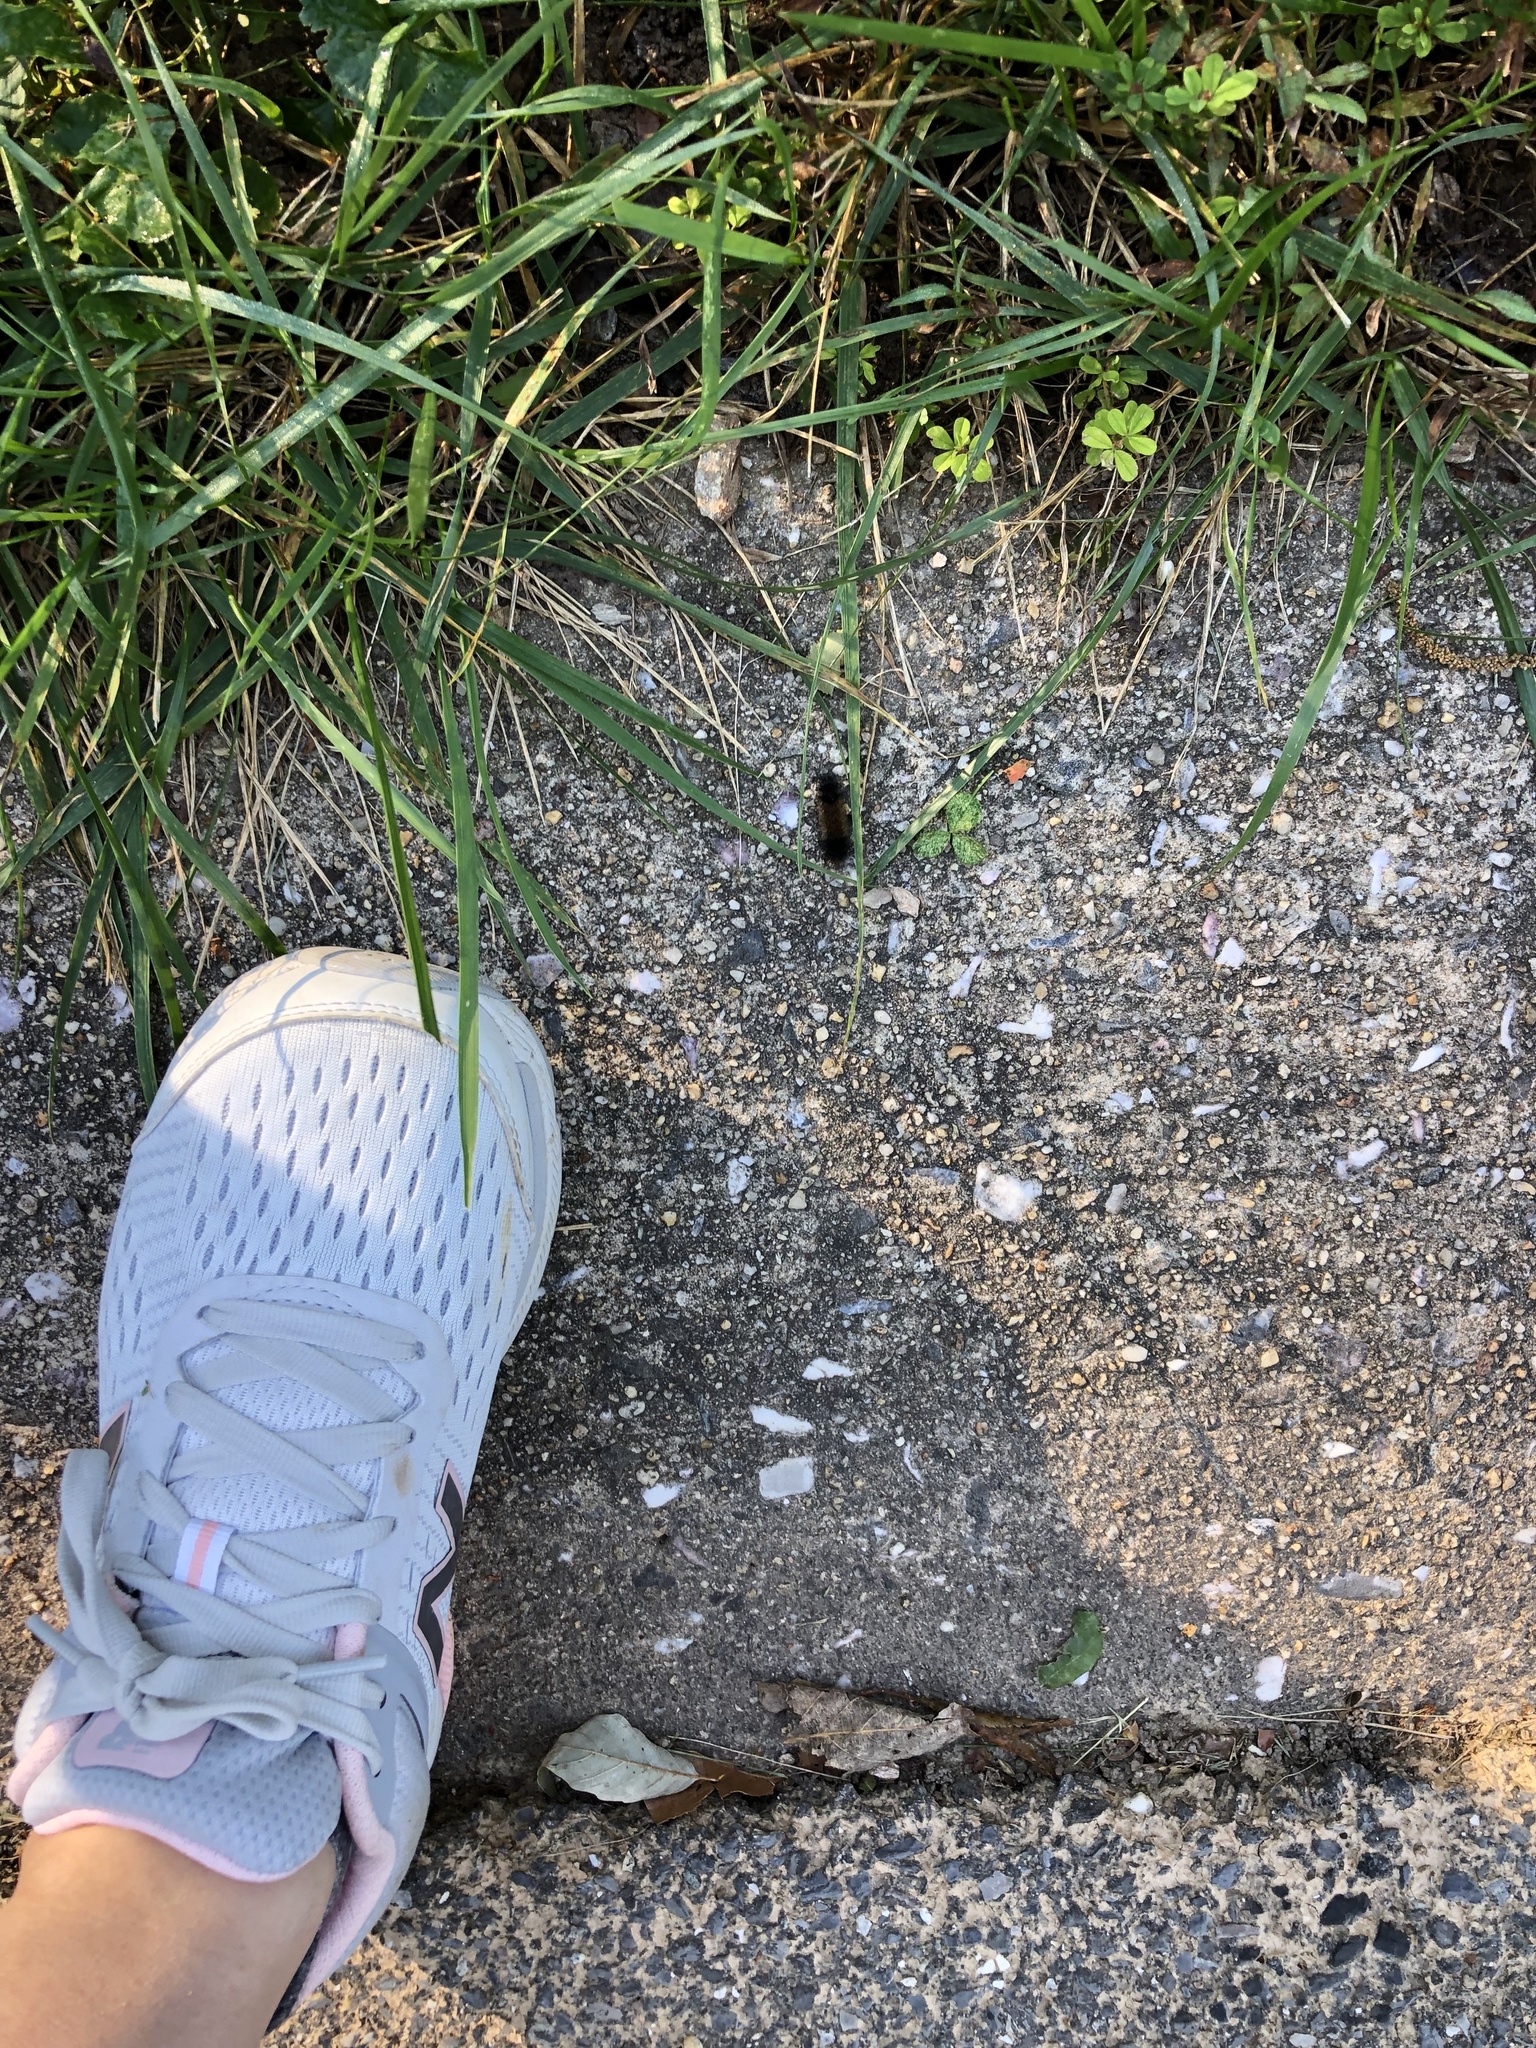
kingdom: Animalia
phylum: Arthropoda
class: Insecta
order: Lepidoptera
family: Erebidae
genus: Pyrrharctia
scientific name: Pyrrharctia isabella
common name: Isabella tiger moth
